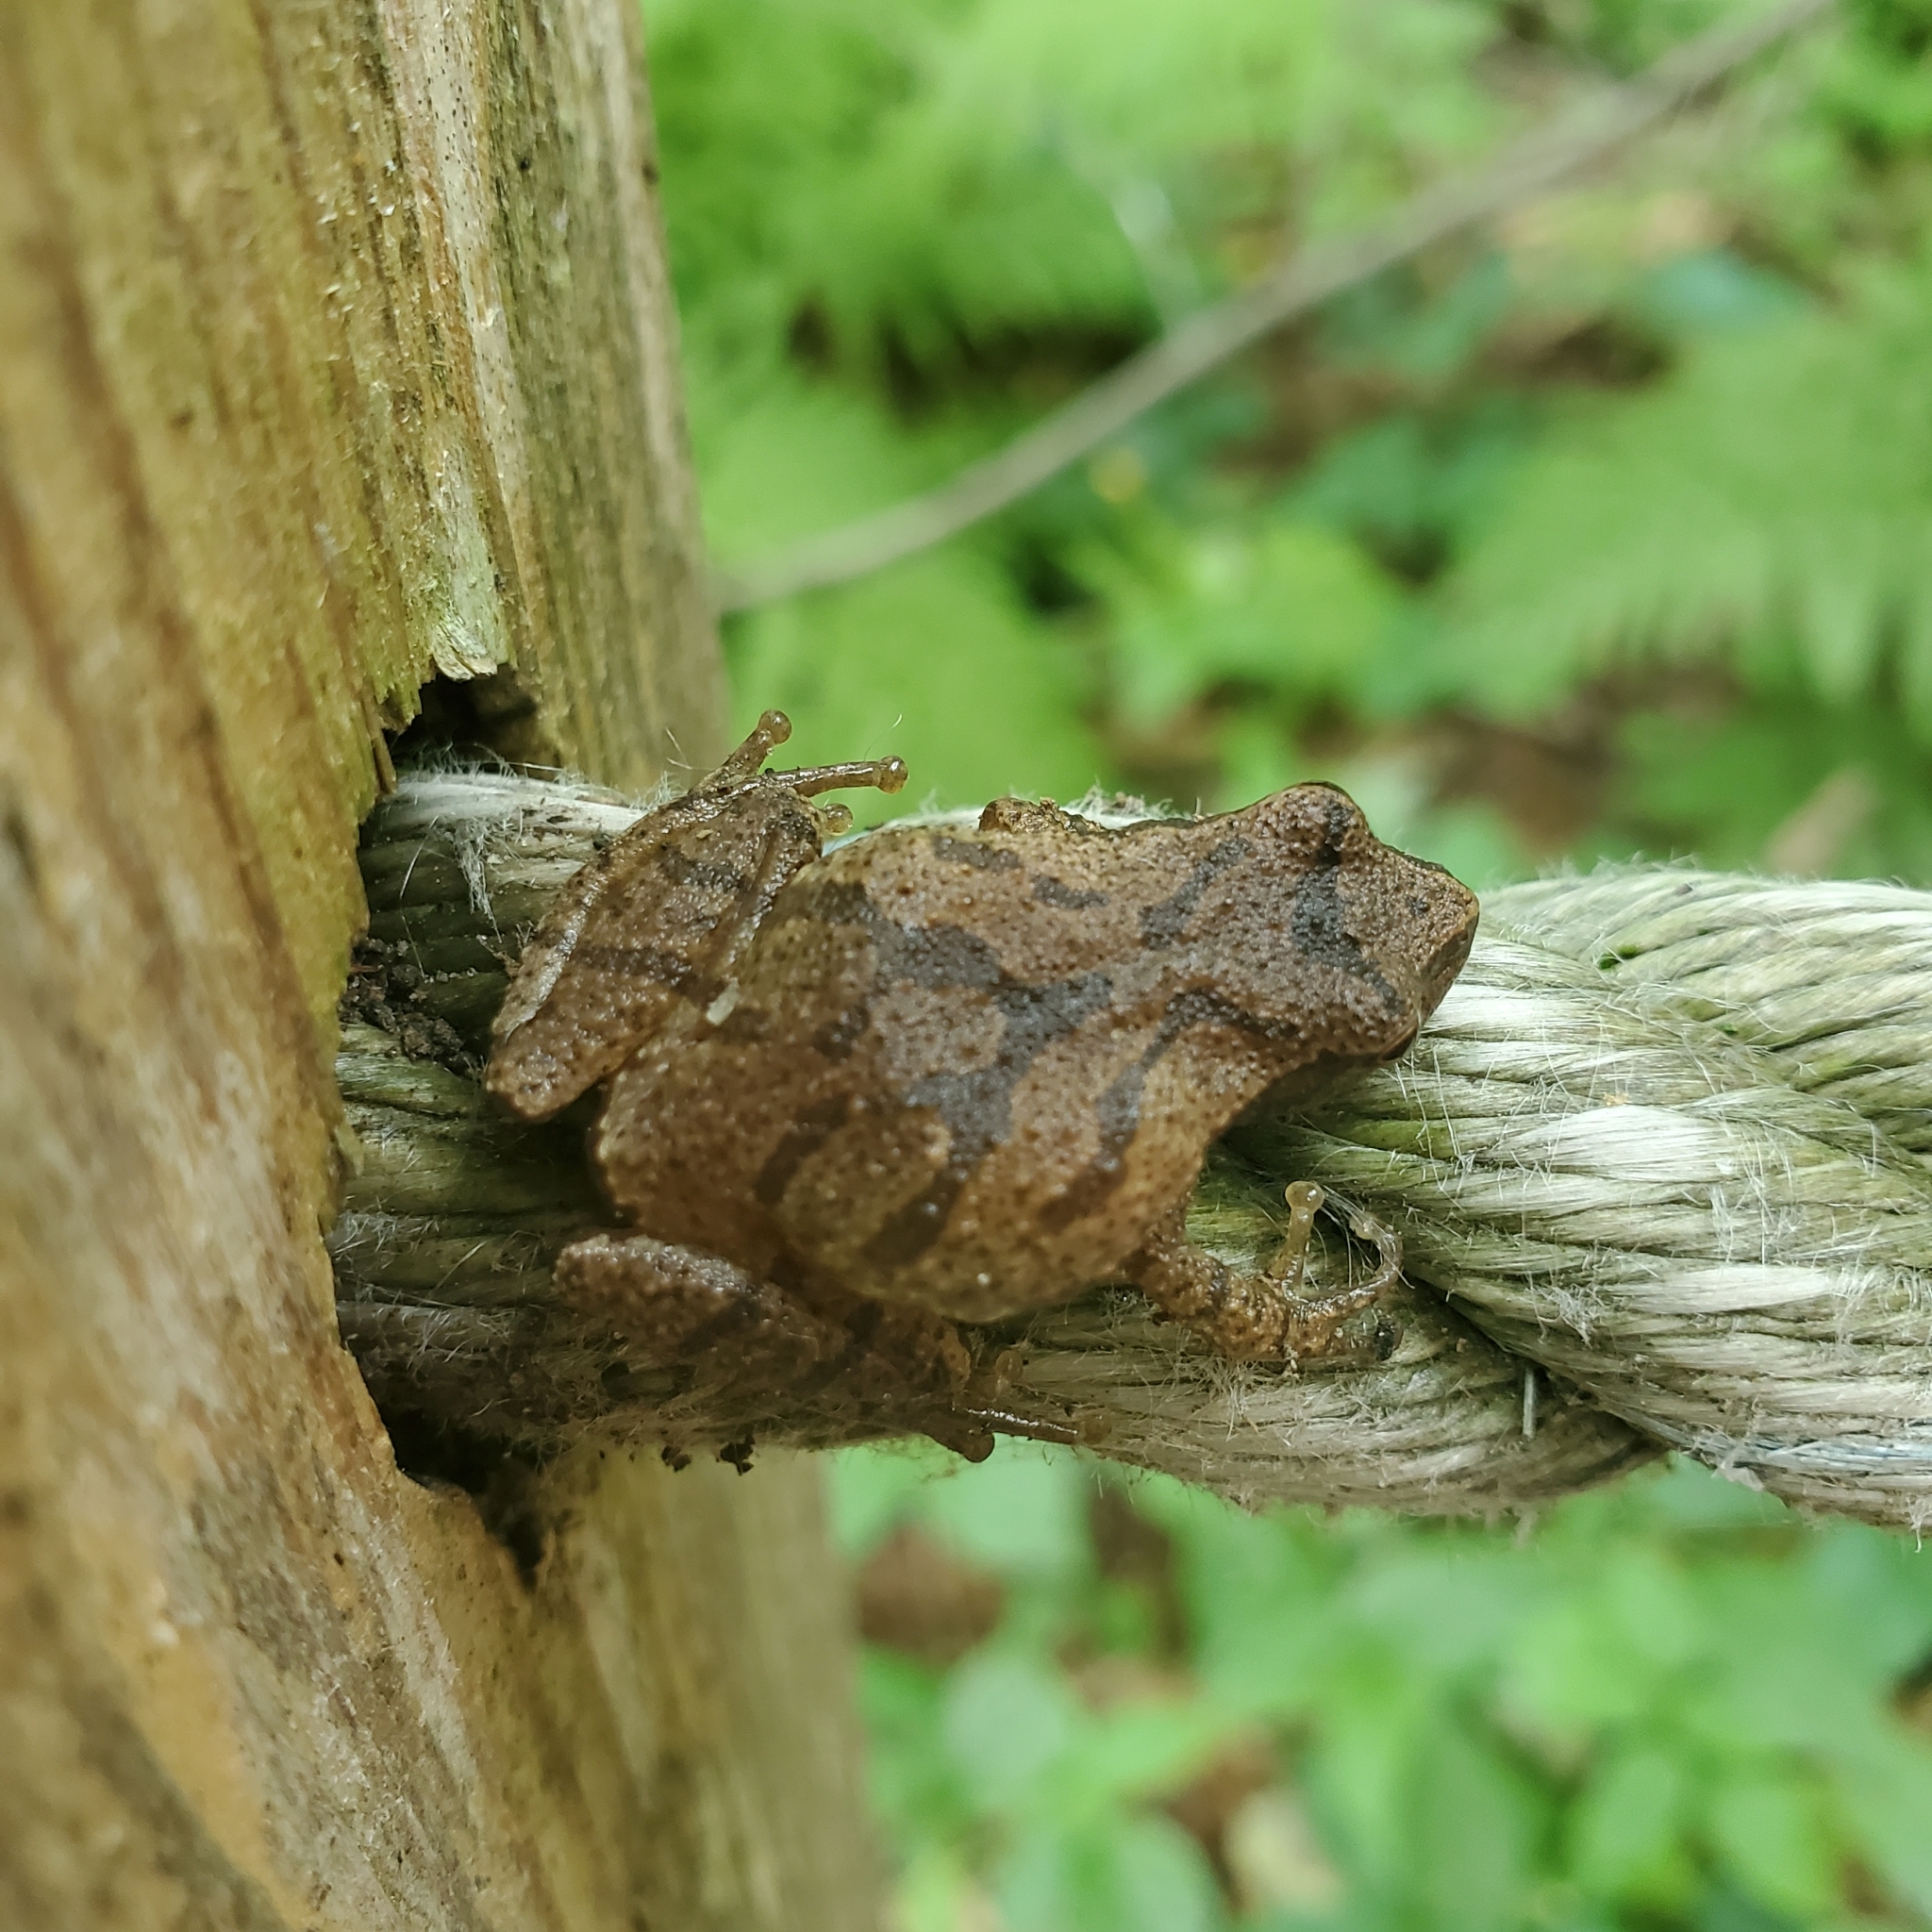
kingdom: Animalia
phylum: Chordata
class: Amphibia
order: Anura
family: Hylidae
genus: Pseudacris
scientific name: Pseudacris crucifer
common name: Spring peeper
